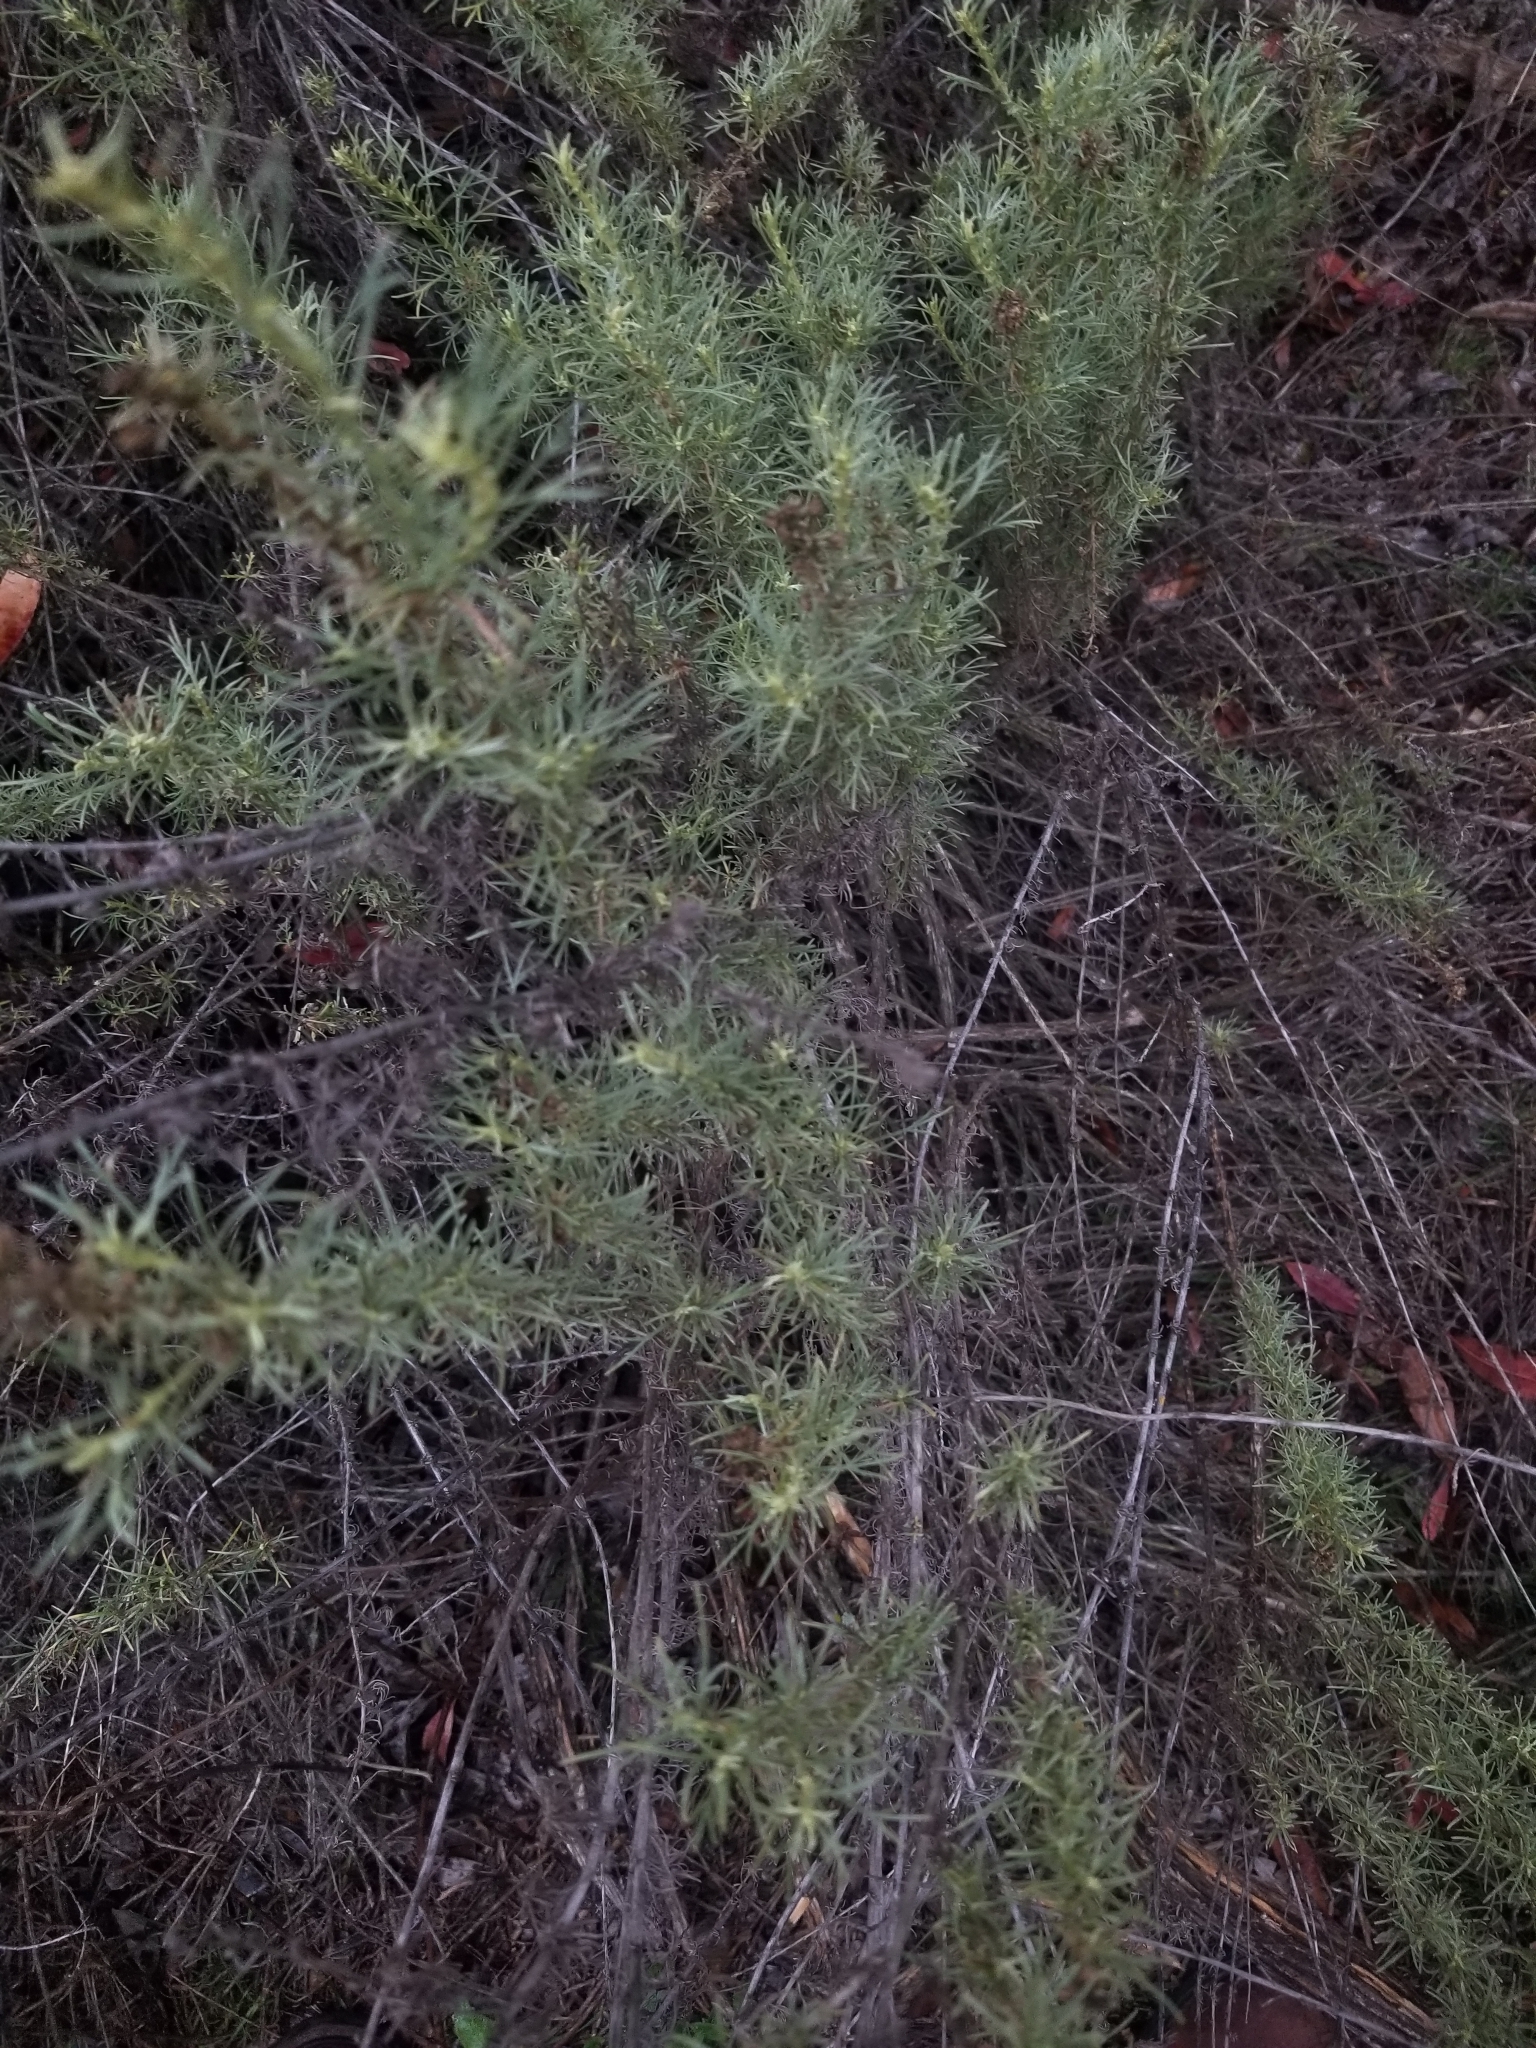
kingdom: Plantae
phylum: Tracheophyta
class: Magnoliopsida
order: Asterales
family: Asteraceae
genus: Artemisia
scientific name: Artemisia californica
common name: California sagebrush
